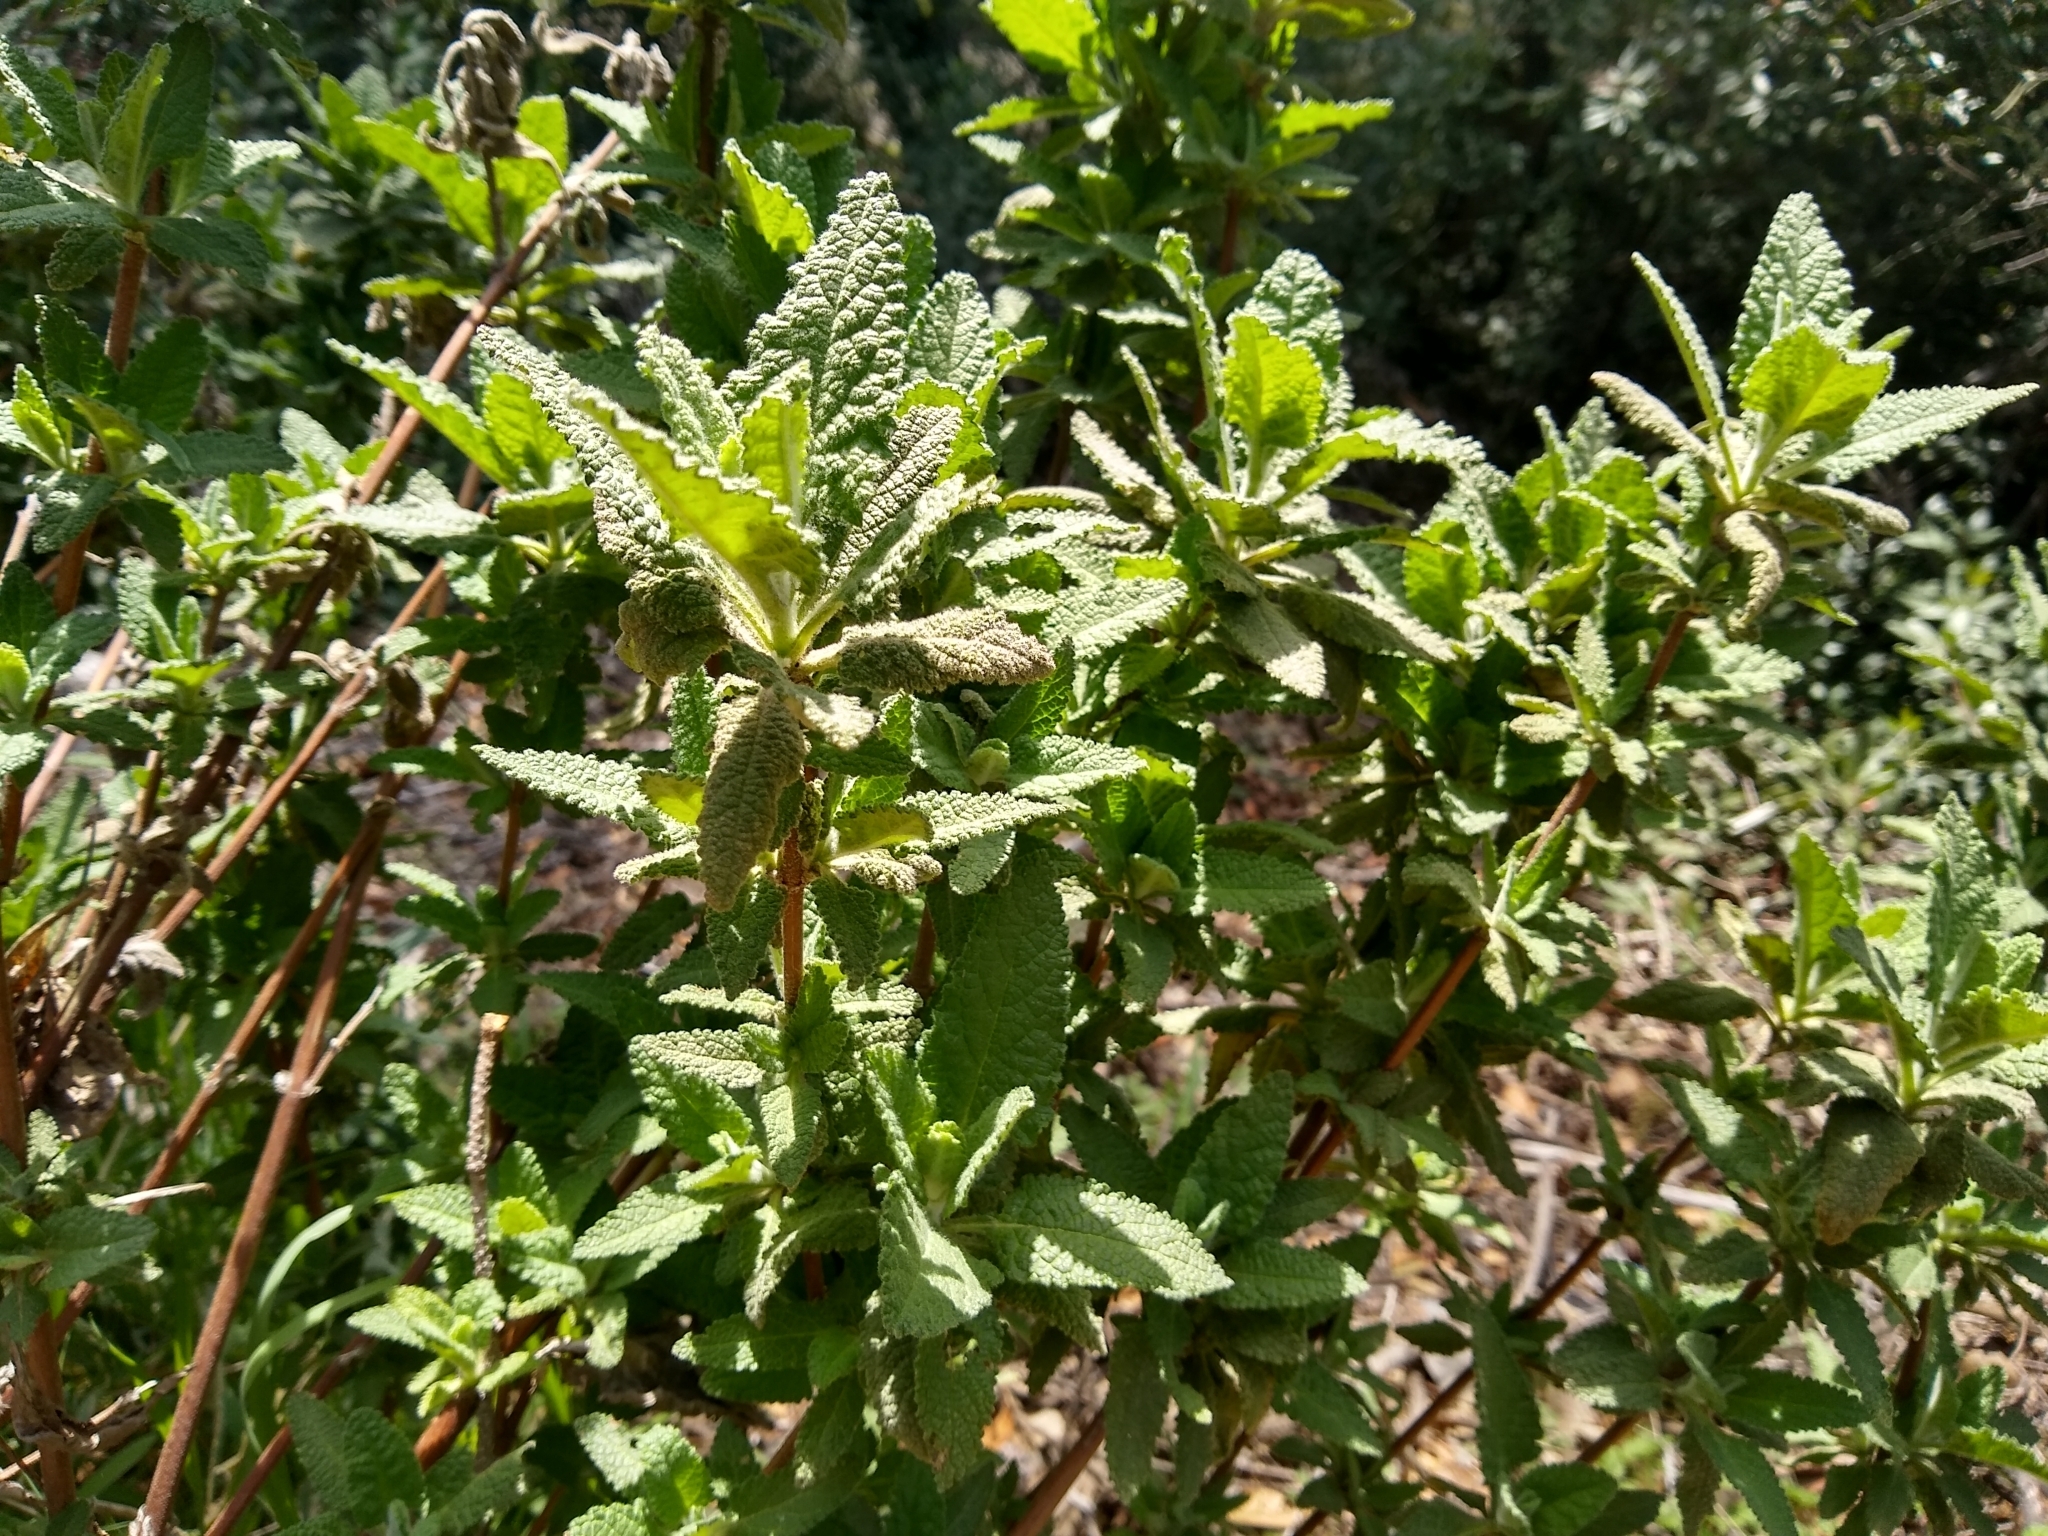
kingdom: Plantae
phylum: Tracheophyta
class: Magnoliopsida
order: Lamiales
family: Lamiaceae
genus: Lepechinia
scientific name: Lepechinia calycina
